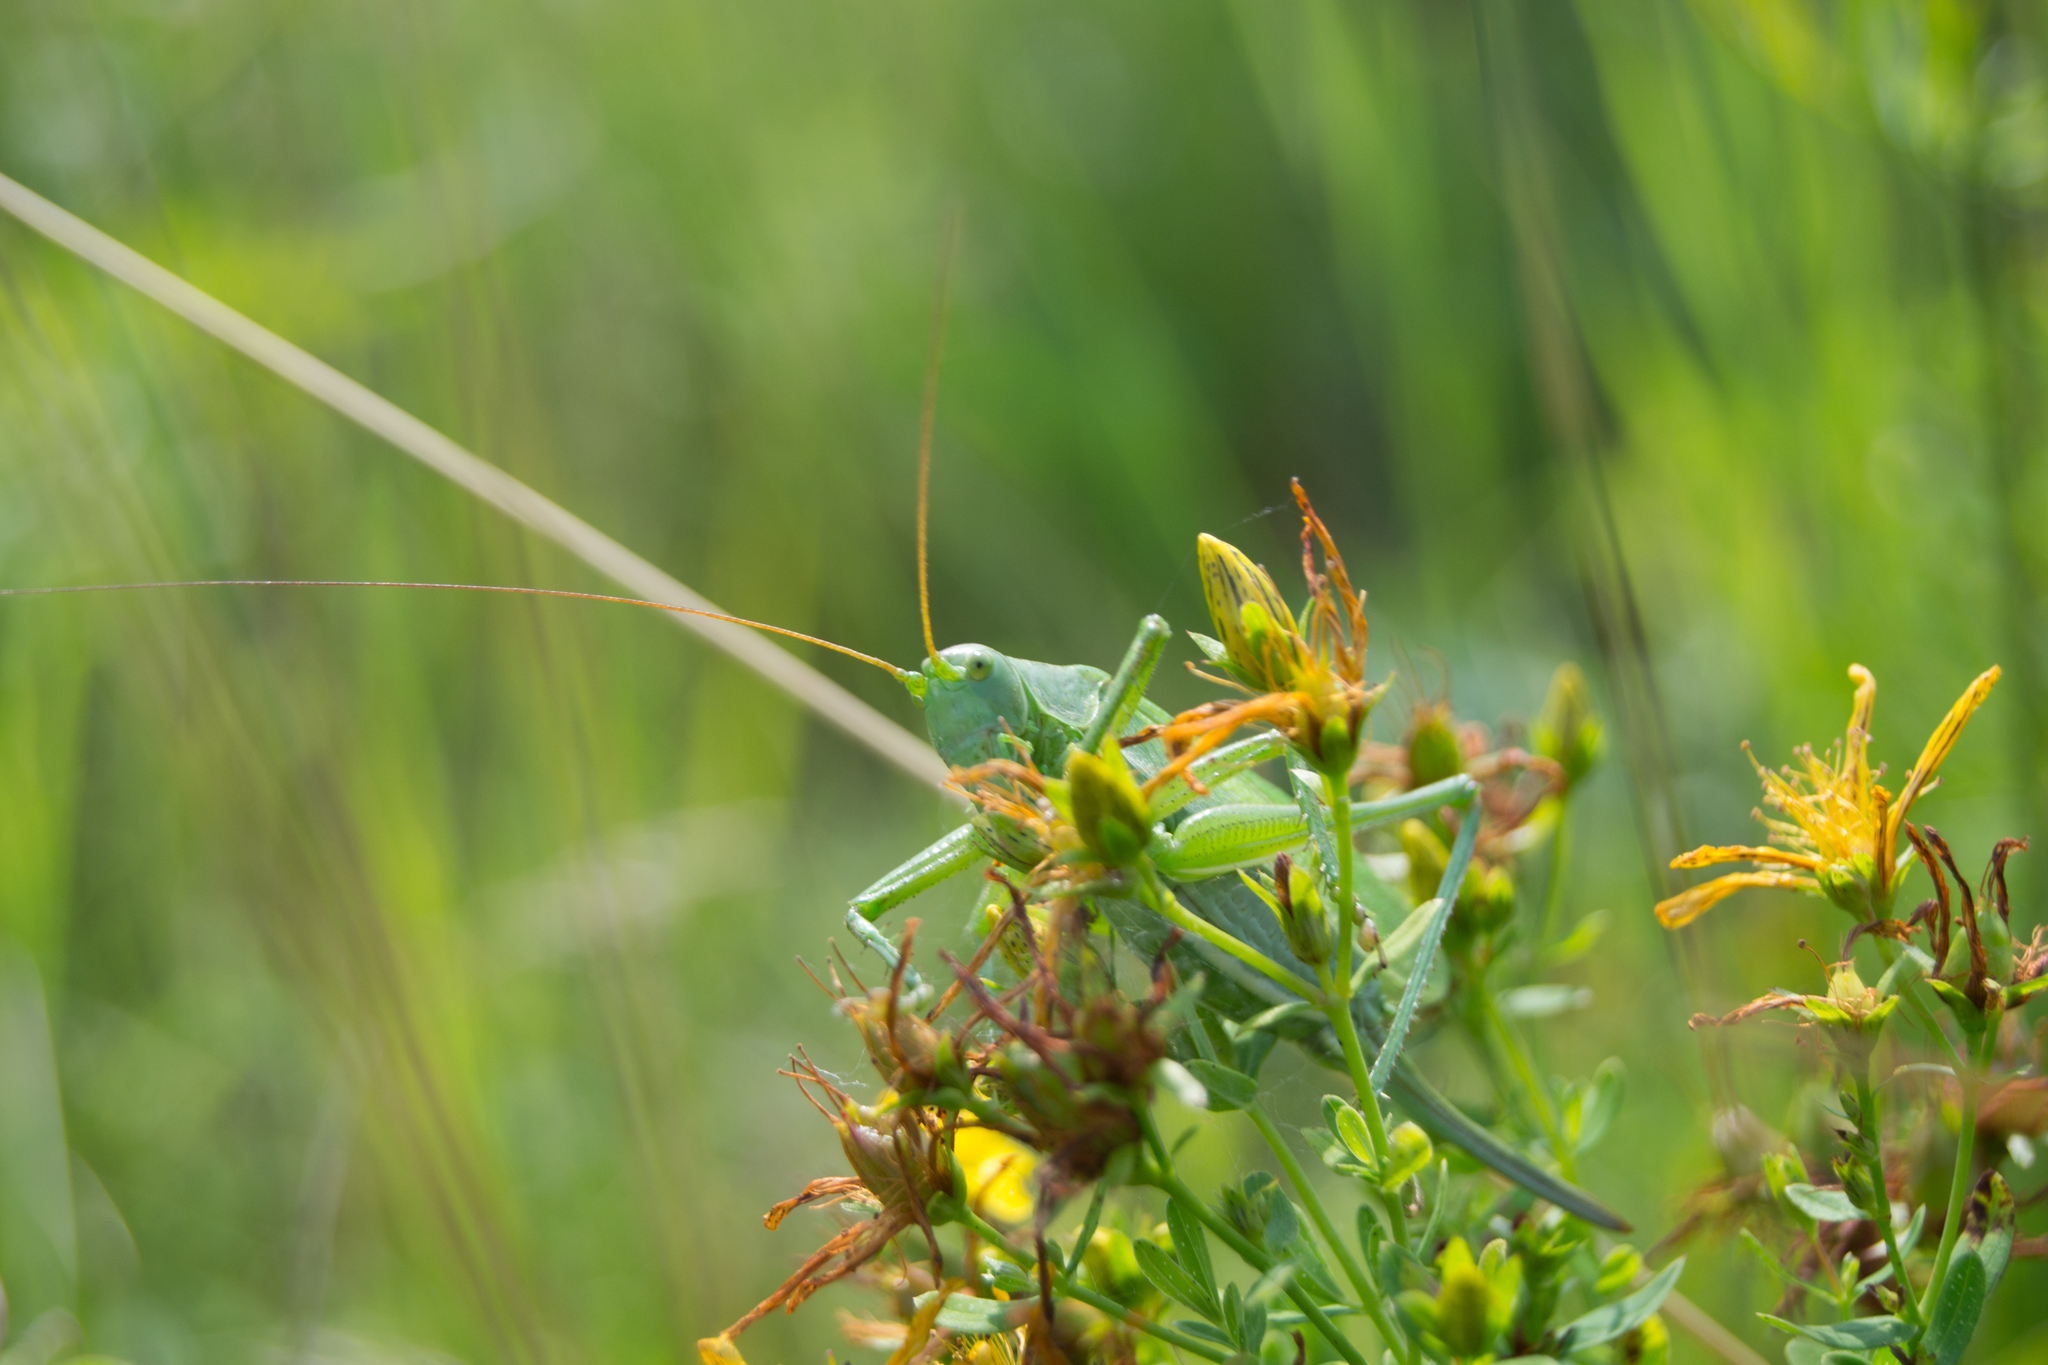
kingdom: Animalia
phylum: Arthropoda
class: Insecta
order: Orthoptera
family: Tettigoniidae
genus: Tettigonia
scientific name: Tettigonia cantans
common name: Upland green bush-cricket
